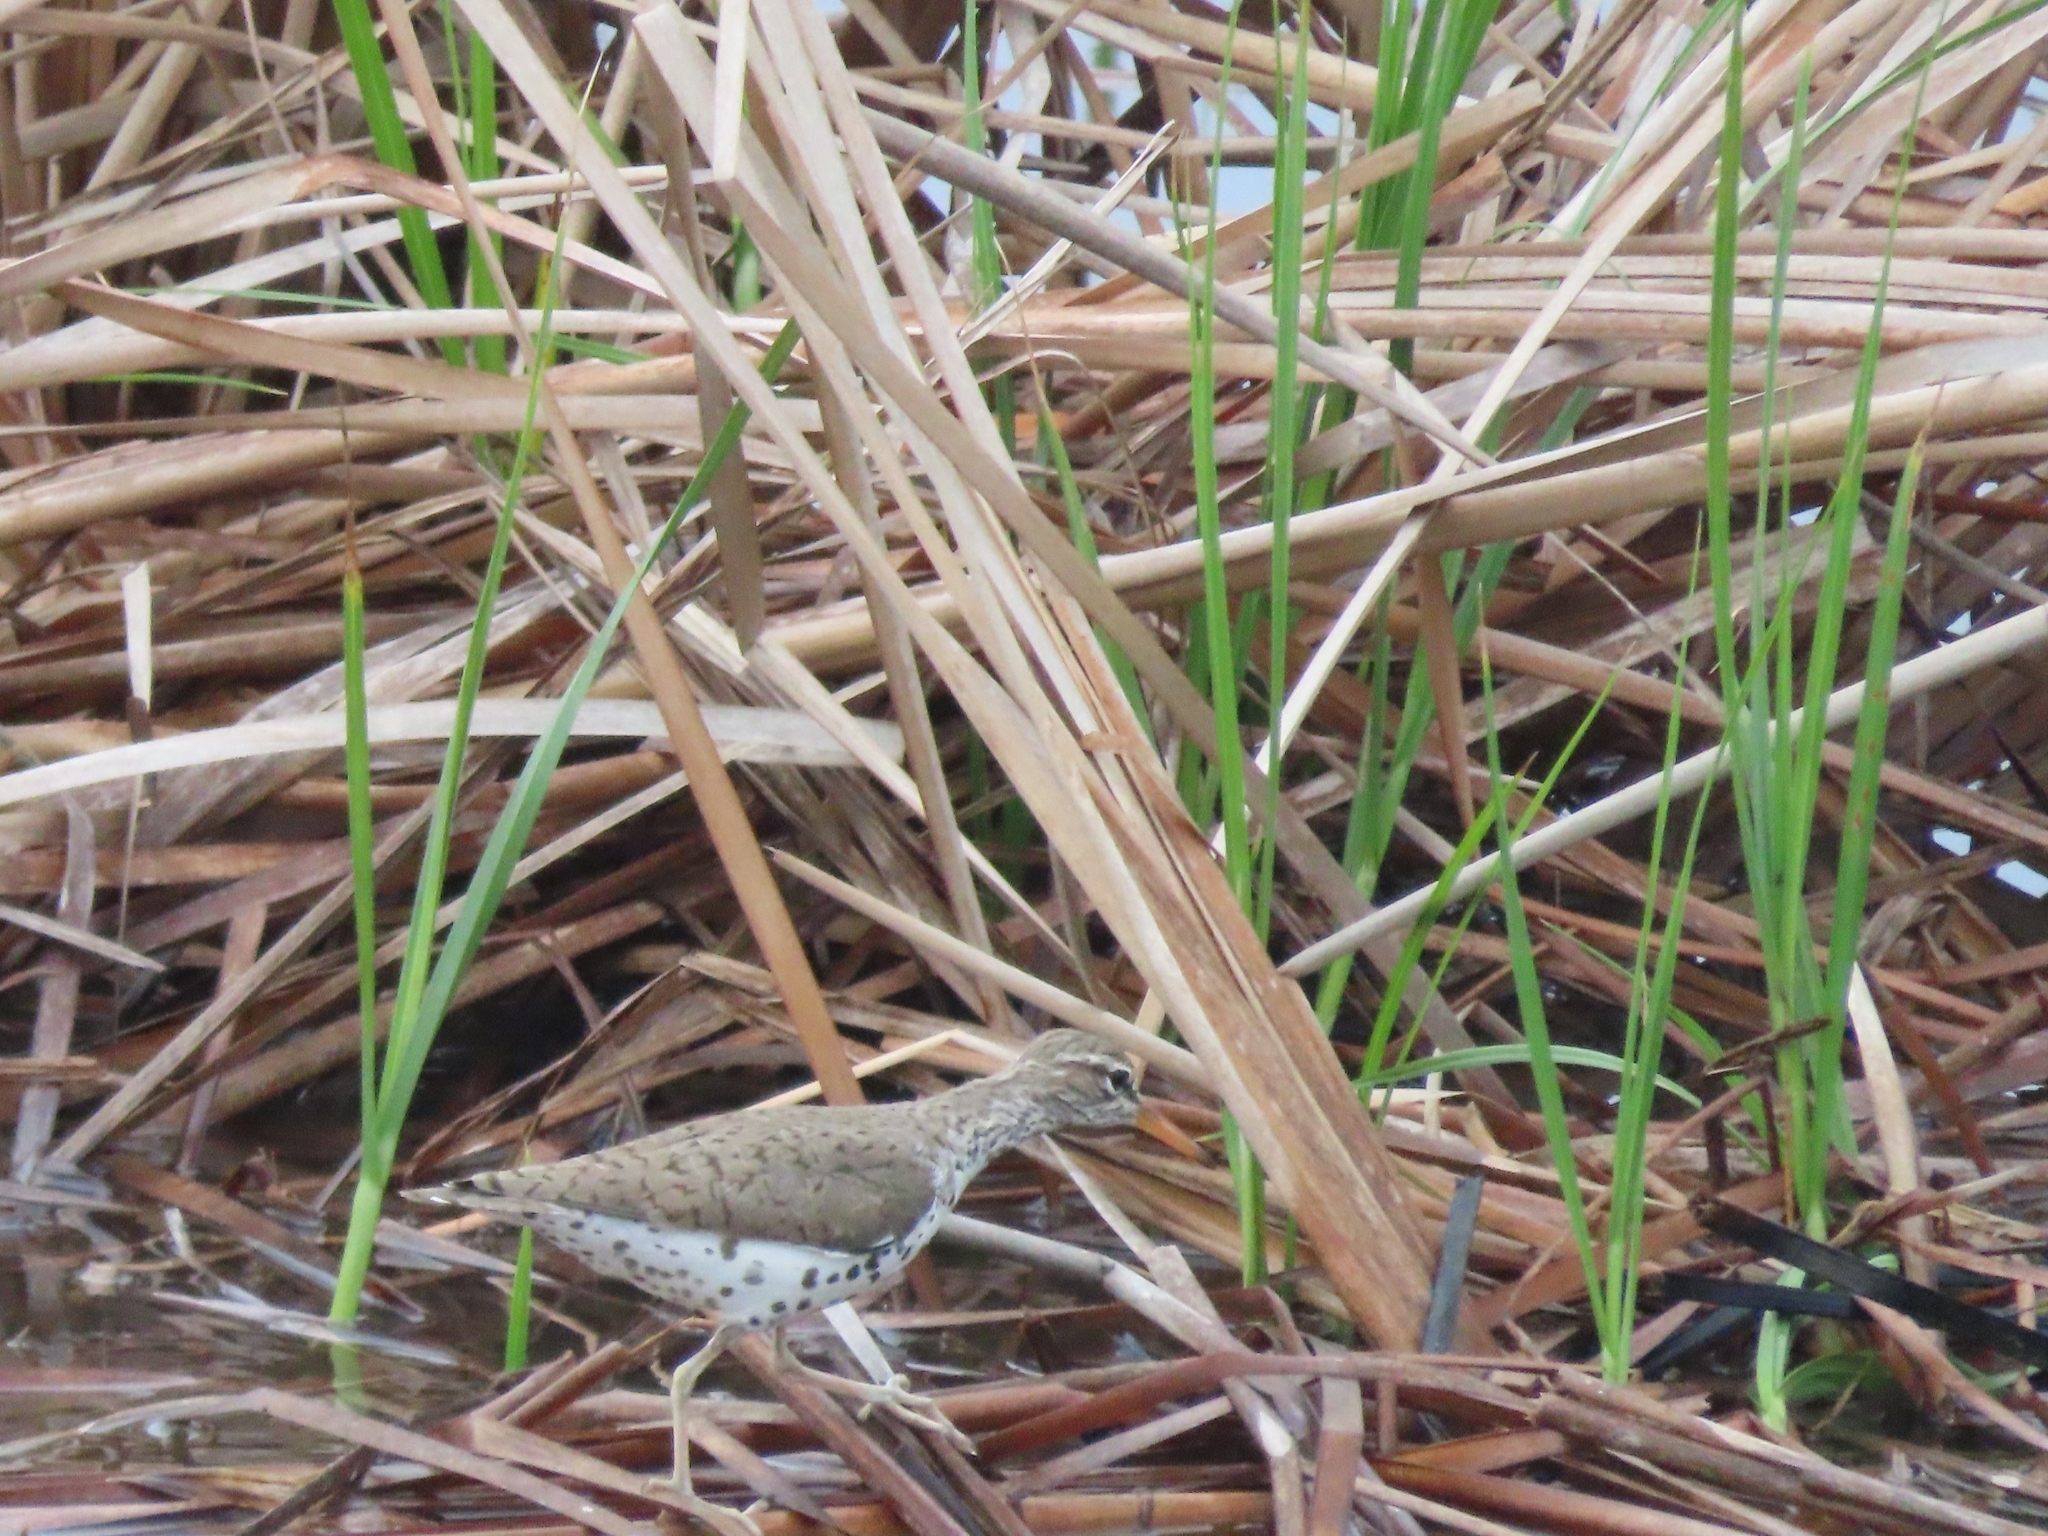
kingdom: Animalia
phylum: Chordata
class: Aves
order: Charadriiformes
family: Scolopacidae
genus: Actitis
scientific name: Actitis macularius
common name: Spotted sandpiper
